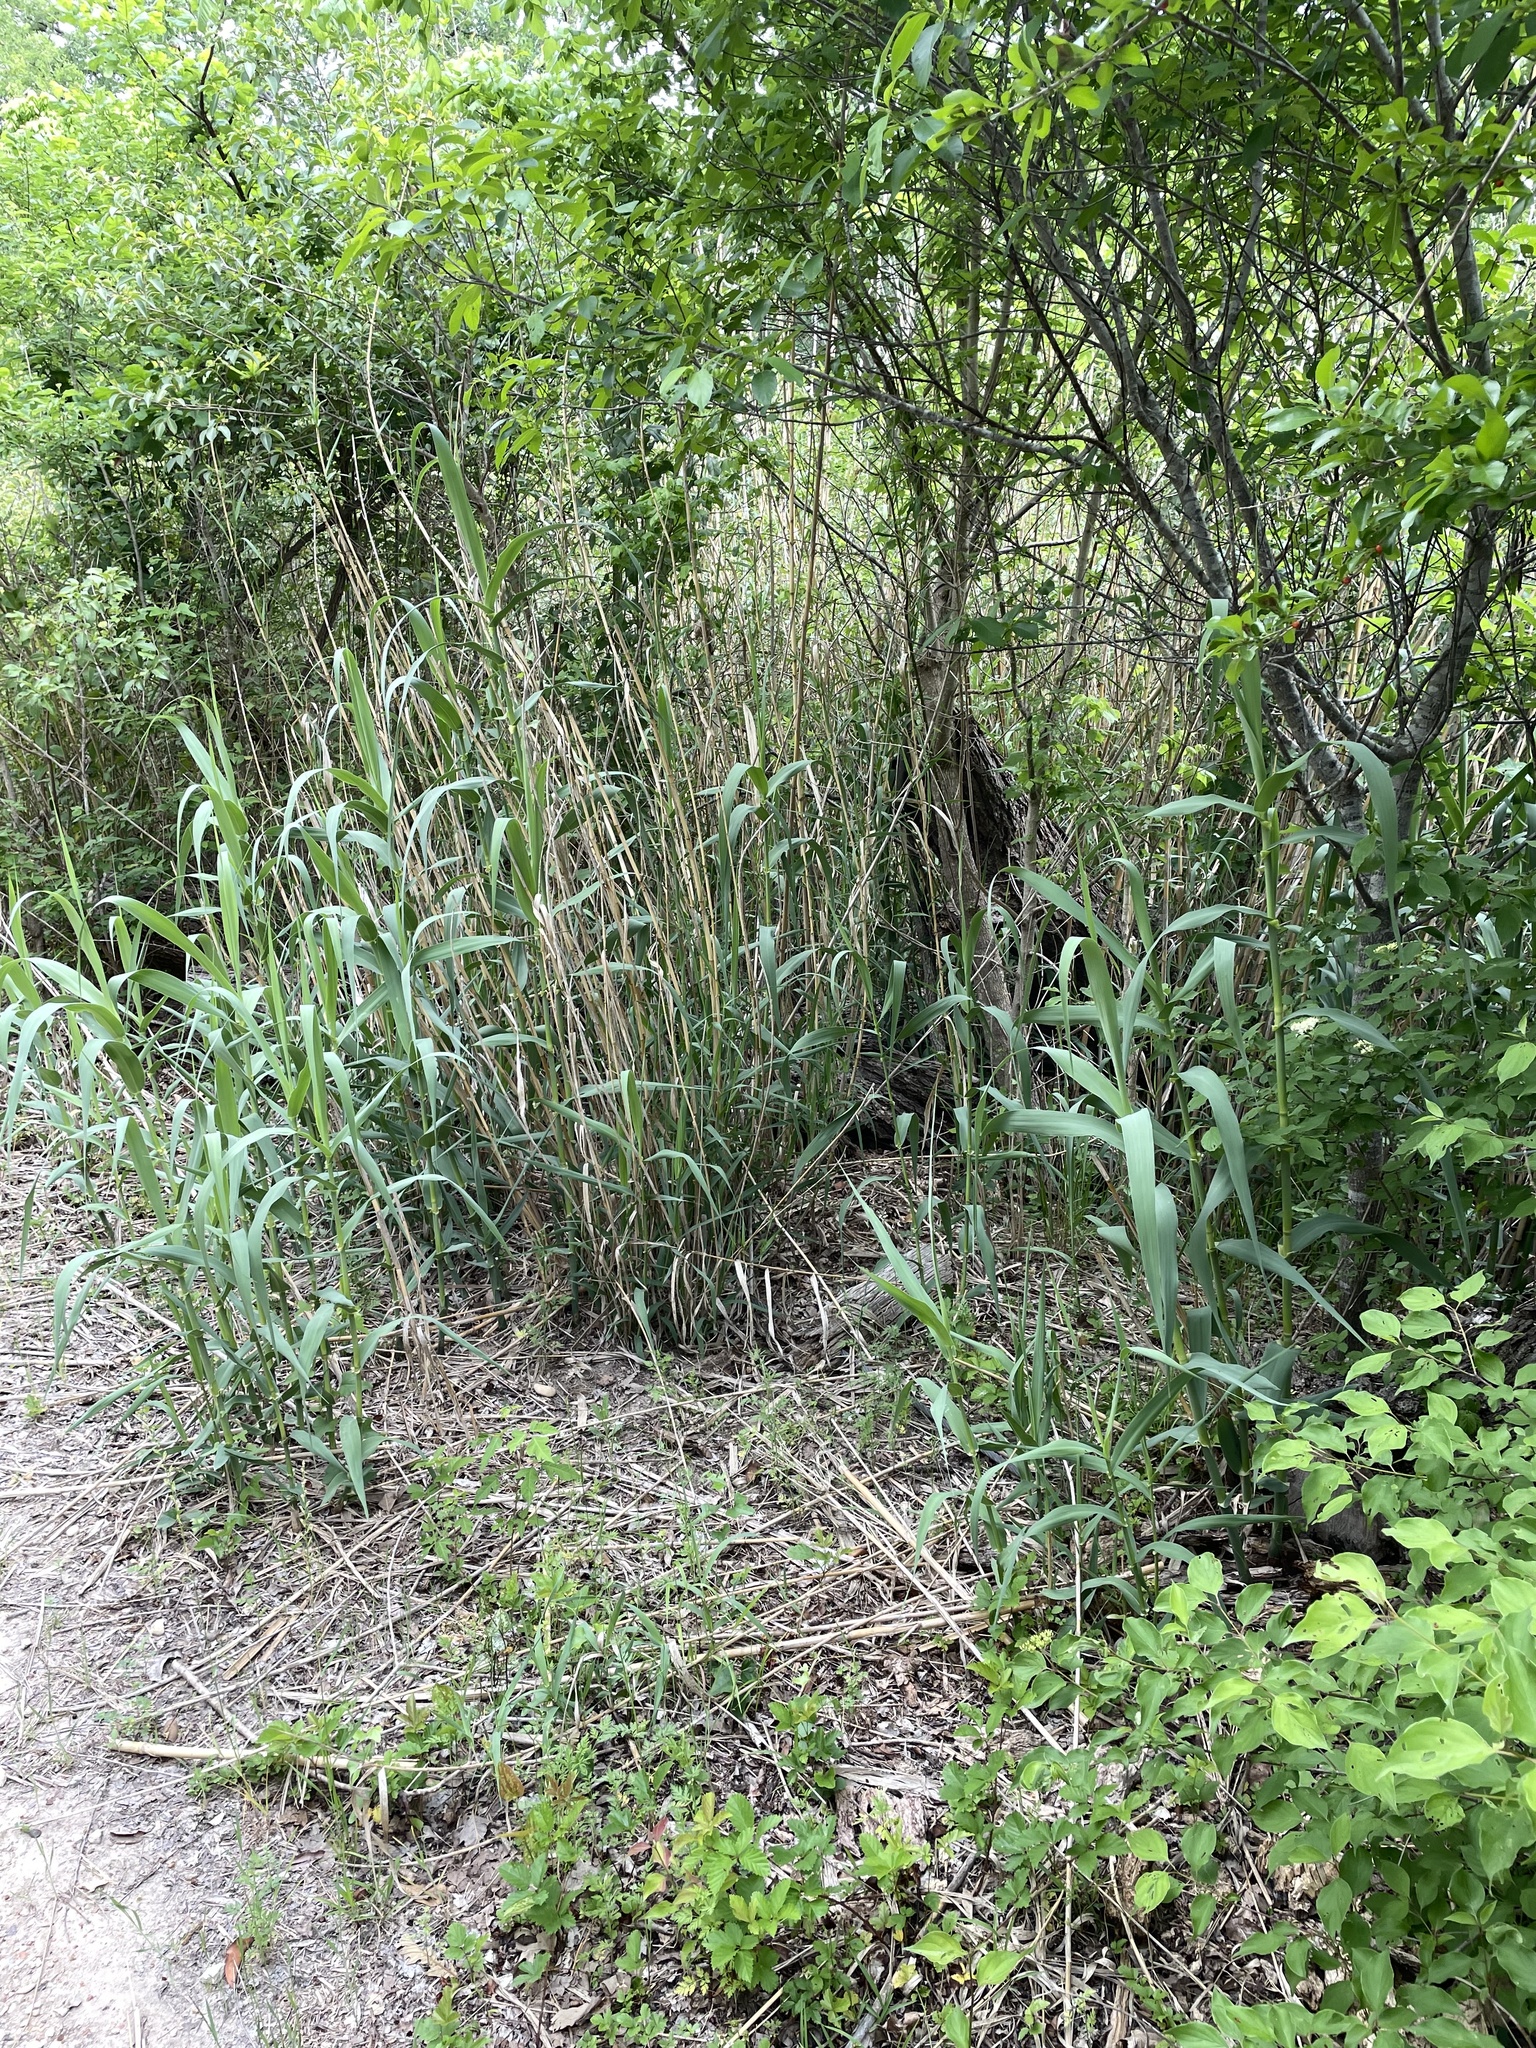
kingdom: Plantae
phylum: Tracheophyta
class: Liliopsida
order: Poales
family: Poaceae
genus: Arundo
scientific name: Arundo donax
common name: Giant reed
